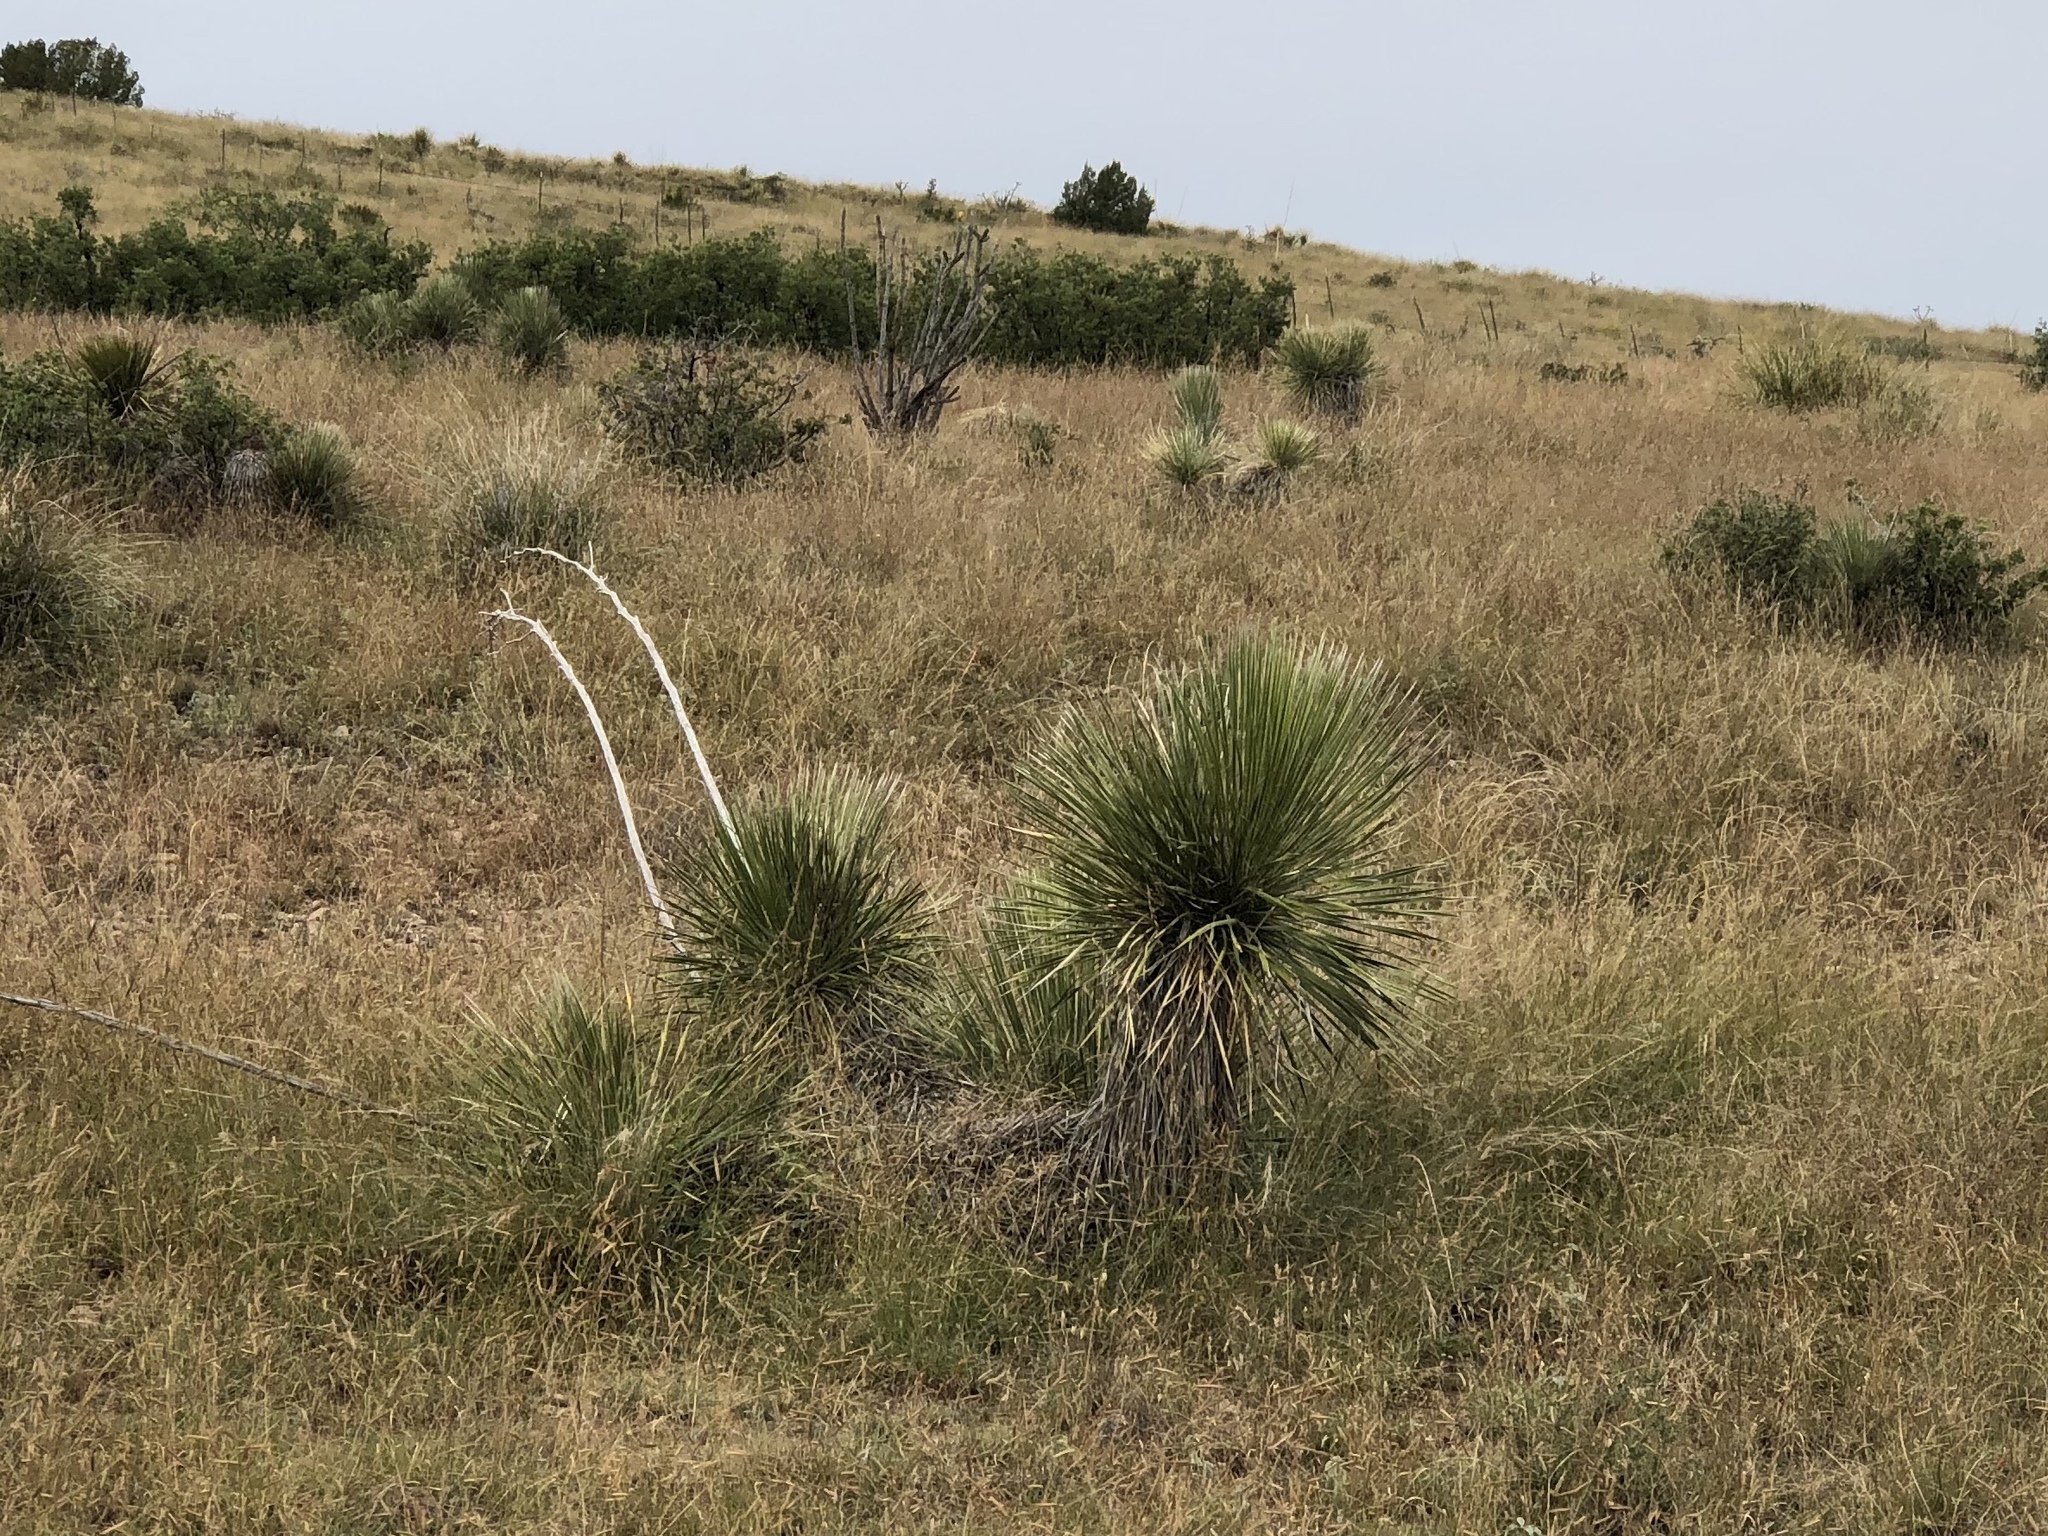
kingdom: Plantae
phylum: Tracheophyta
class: Liliopsida
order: Asparagales
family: Asparagaceae
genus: Yucca
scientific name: Yucca elata
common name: Palmella
